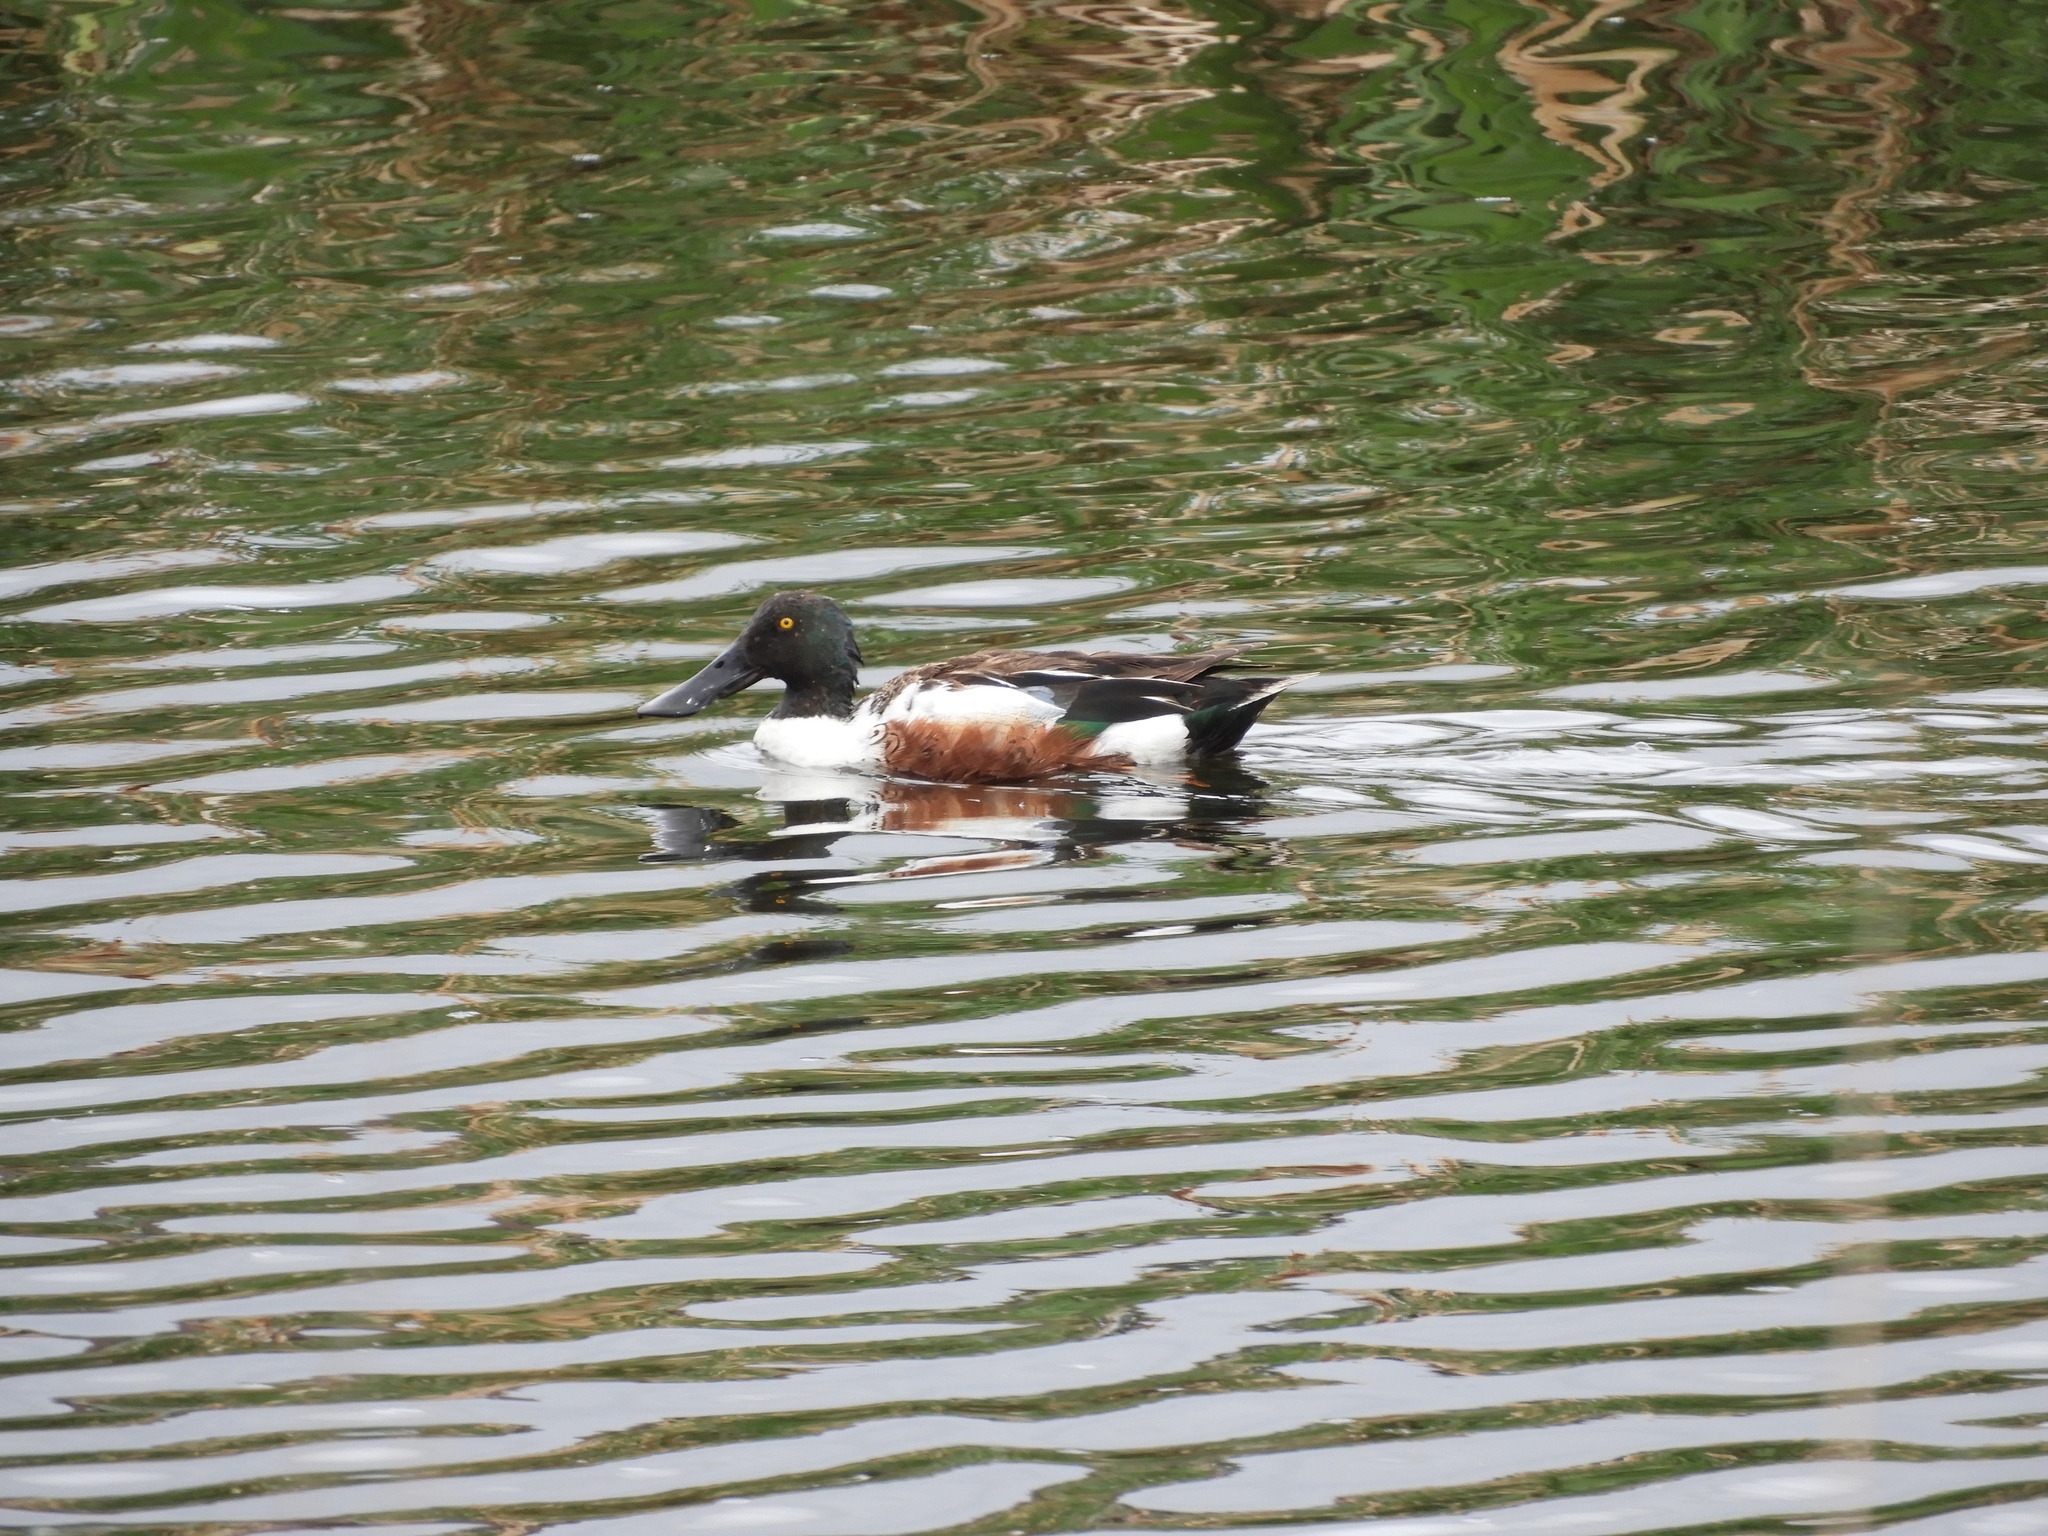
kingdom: Animalia
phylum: Chordata
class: Aves
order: Anseriformes
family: Anatidae
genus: Spatula
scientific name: Spatula clypeata
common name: Northern shoveler
